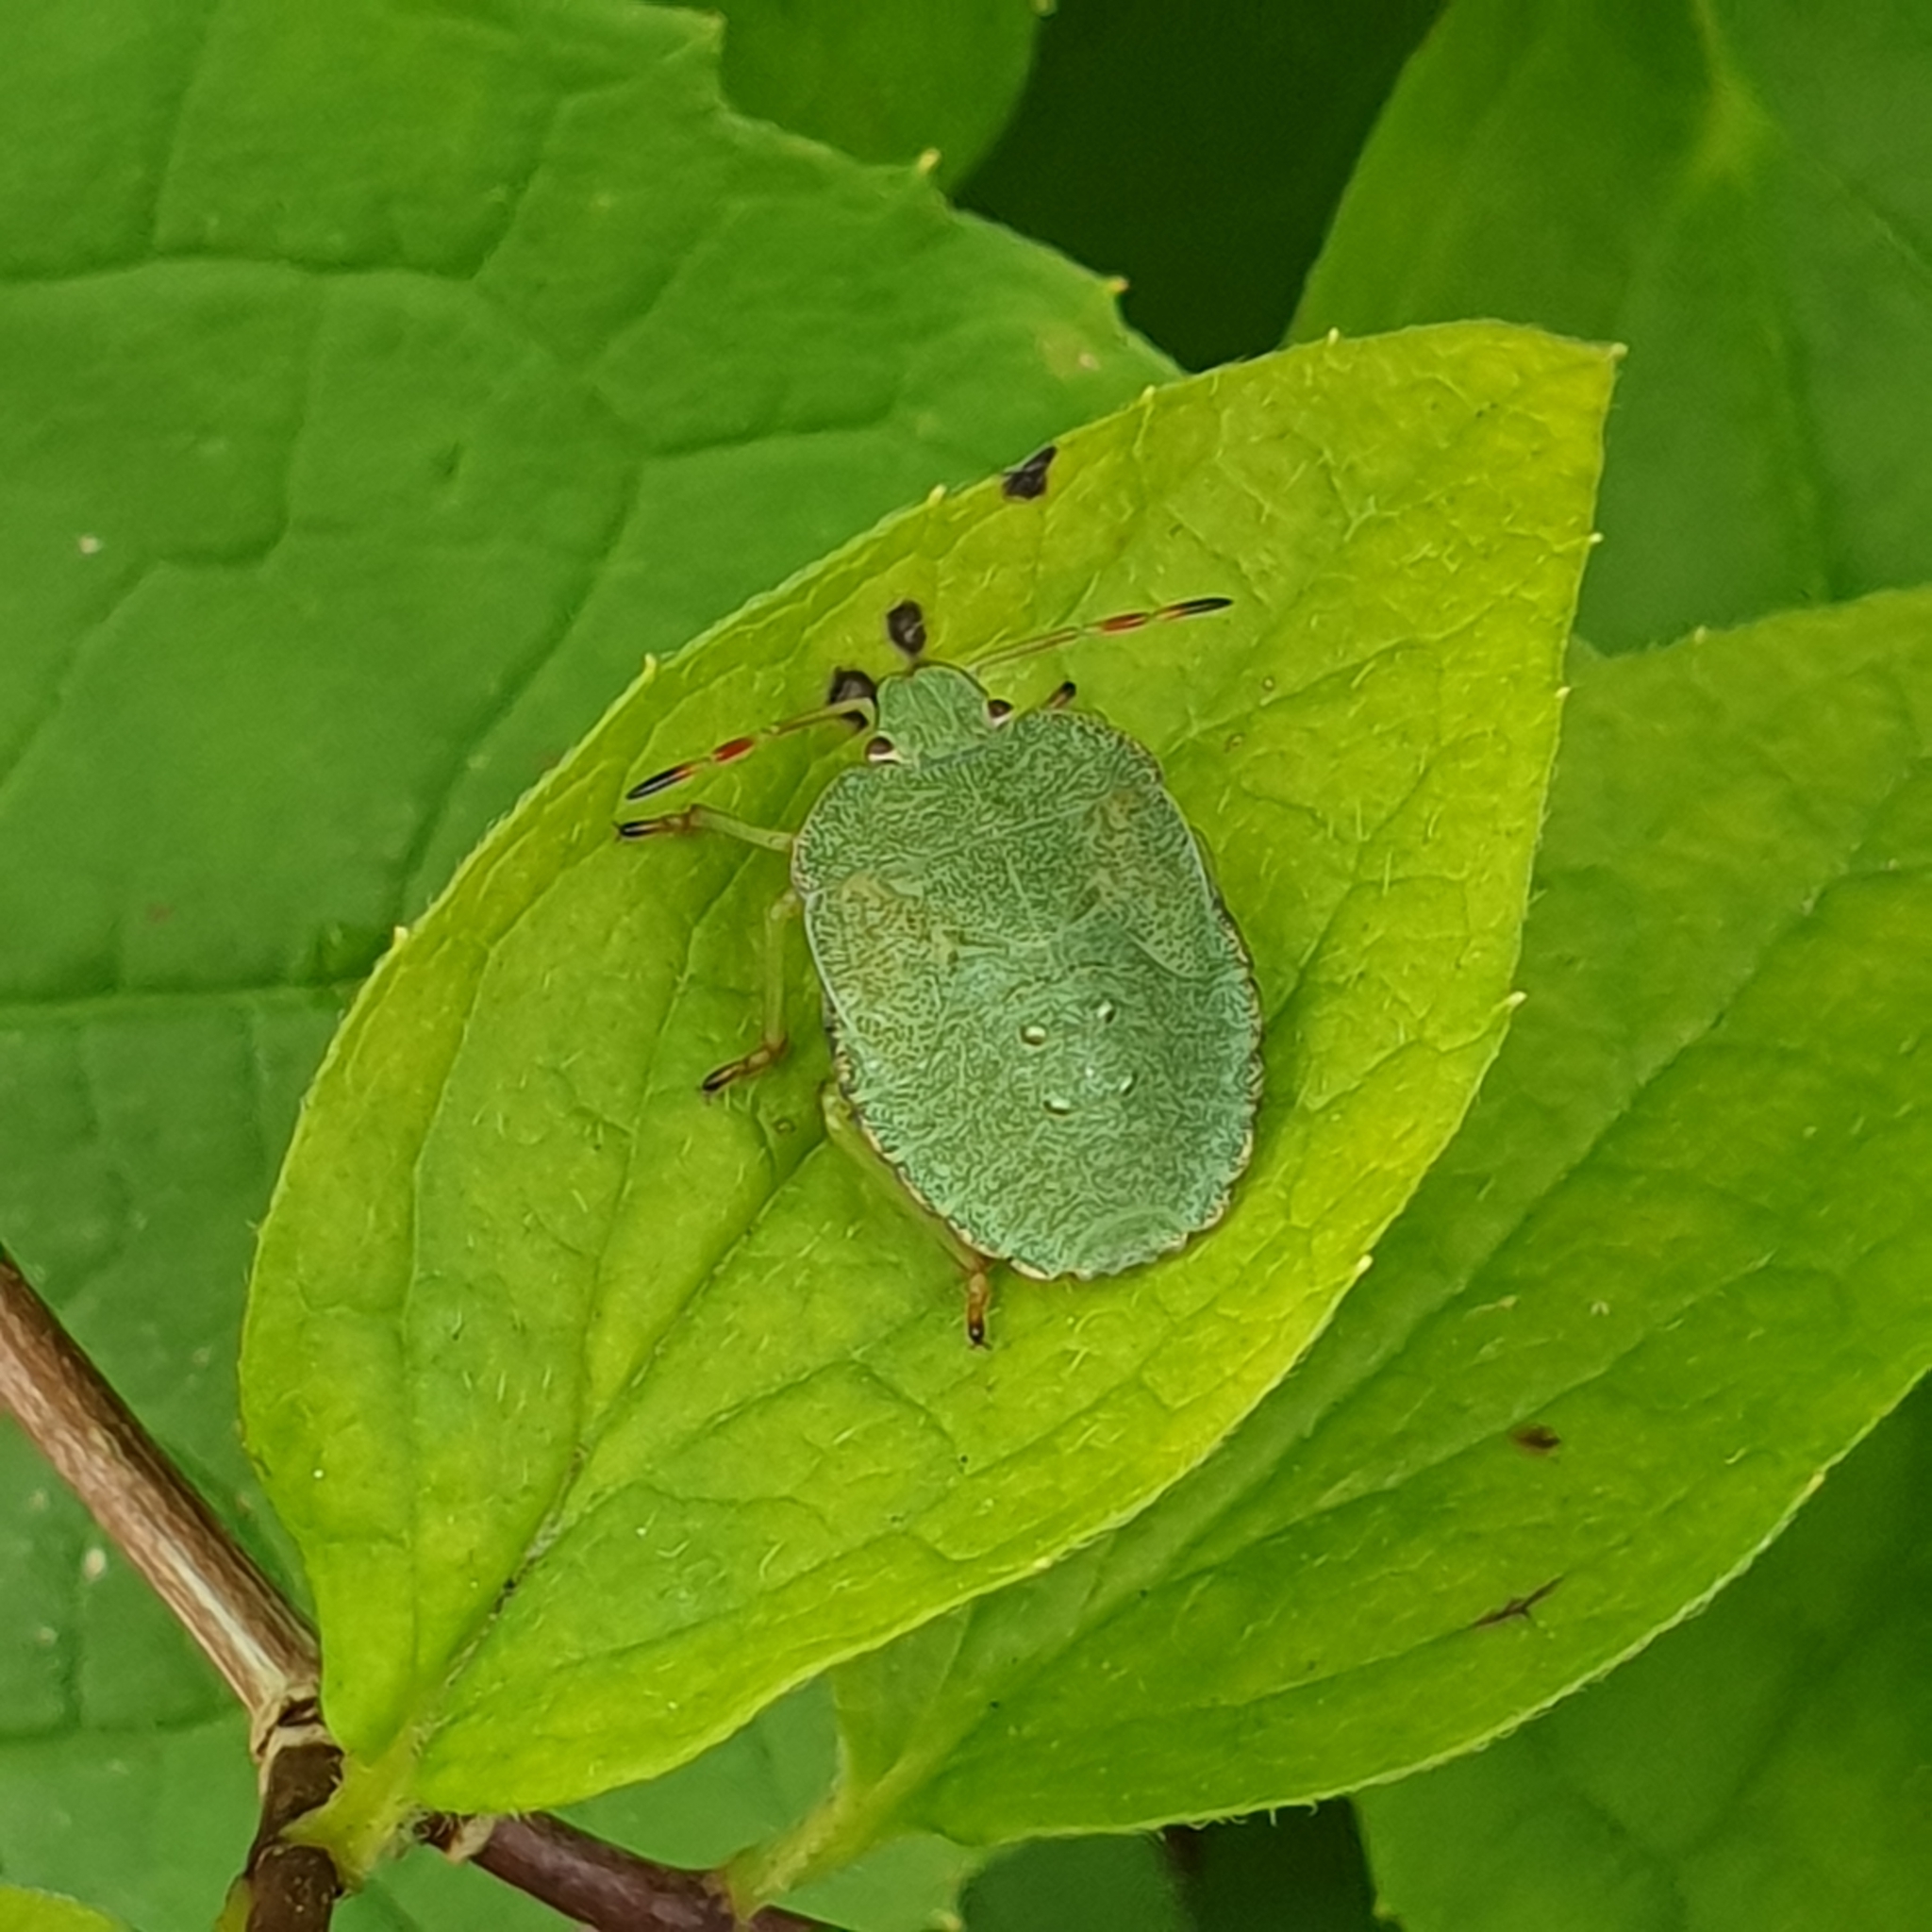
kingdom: Animalia
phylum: Arthropoda
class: Insecta
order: Hemiptera
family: Pentatomidae
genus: Palomena
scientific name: Palomena prasina
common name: Green shieldbug
